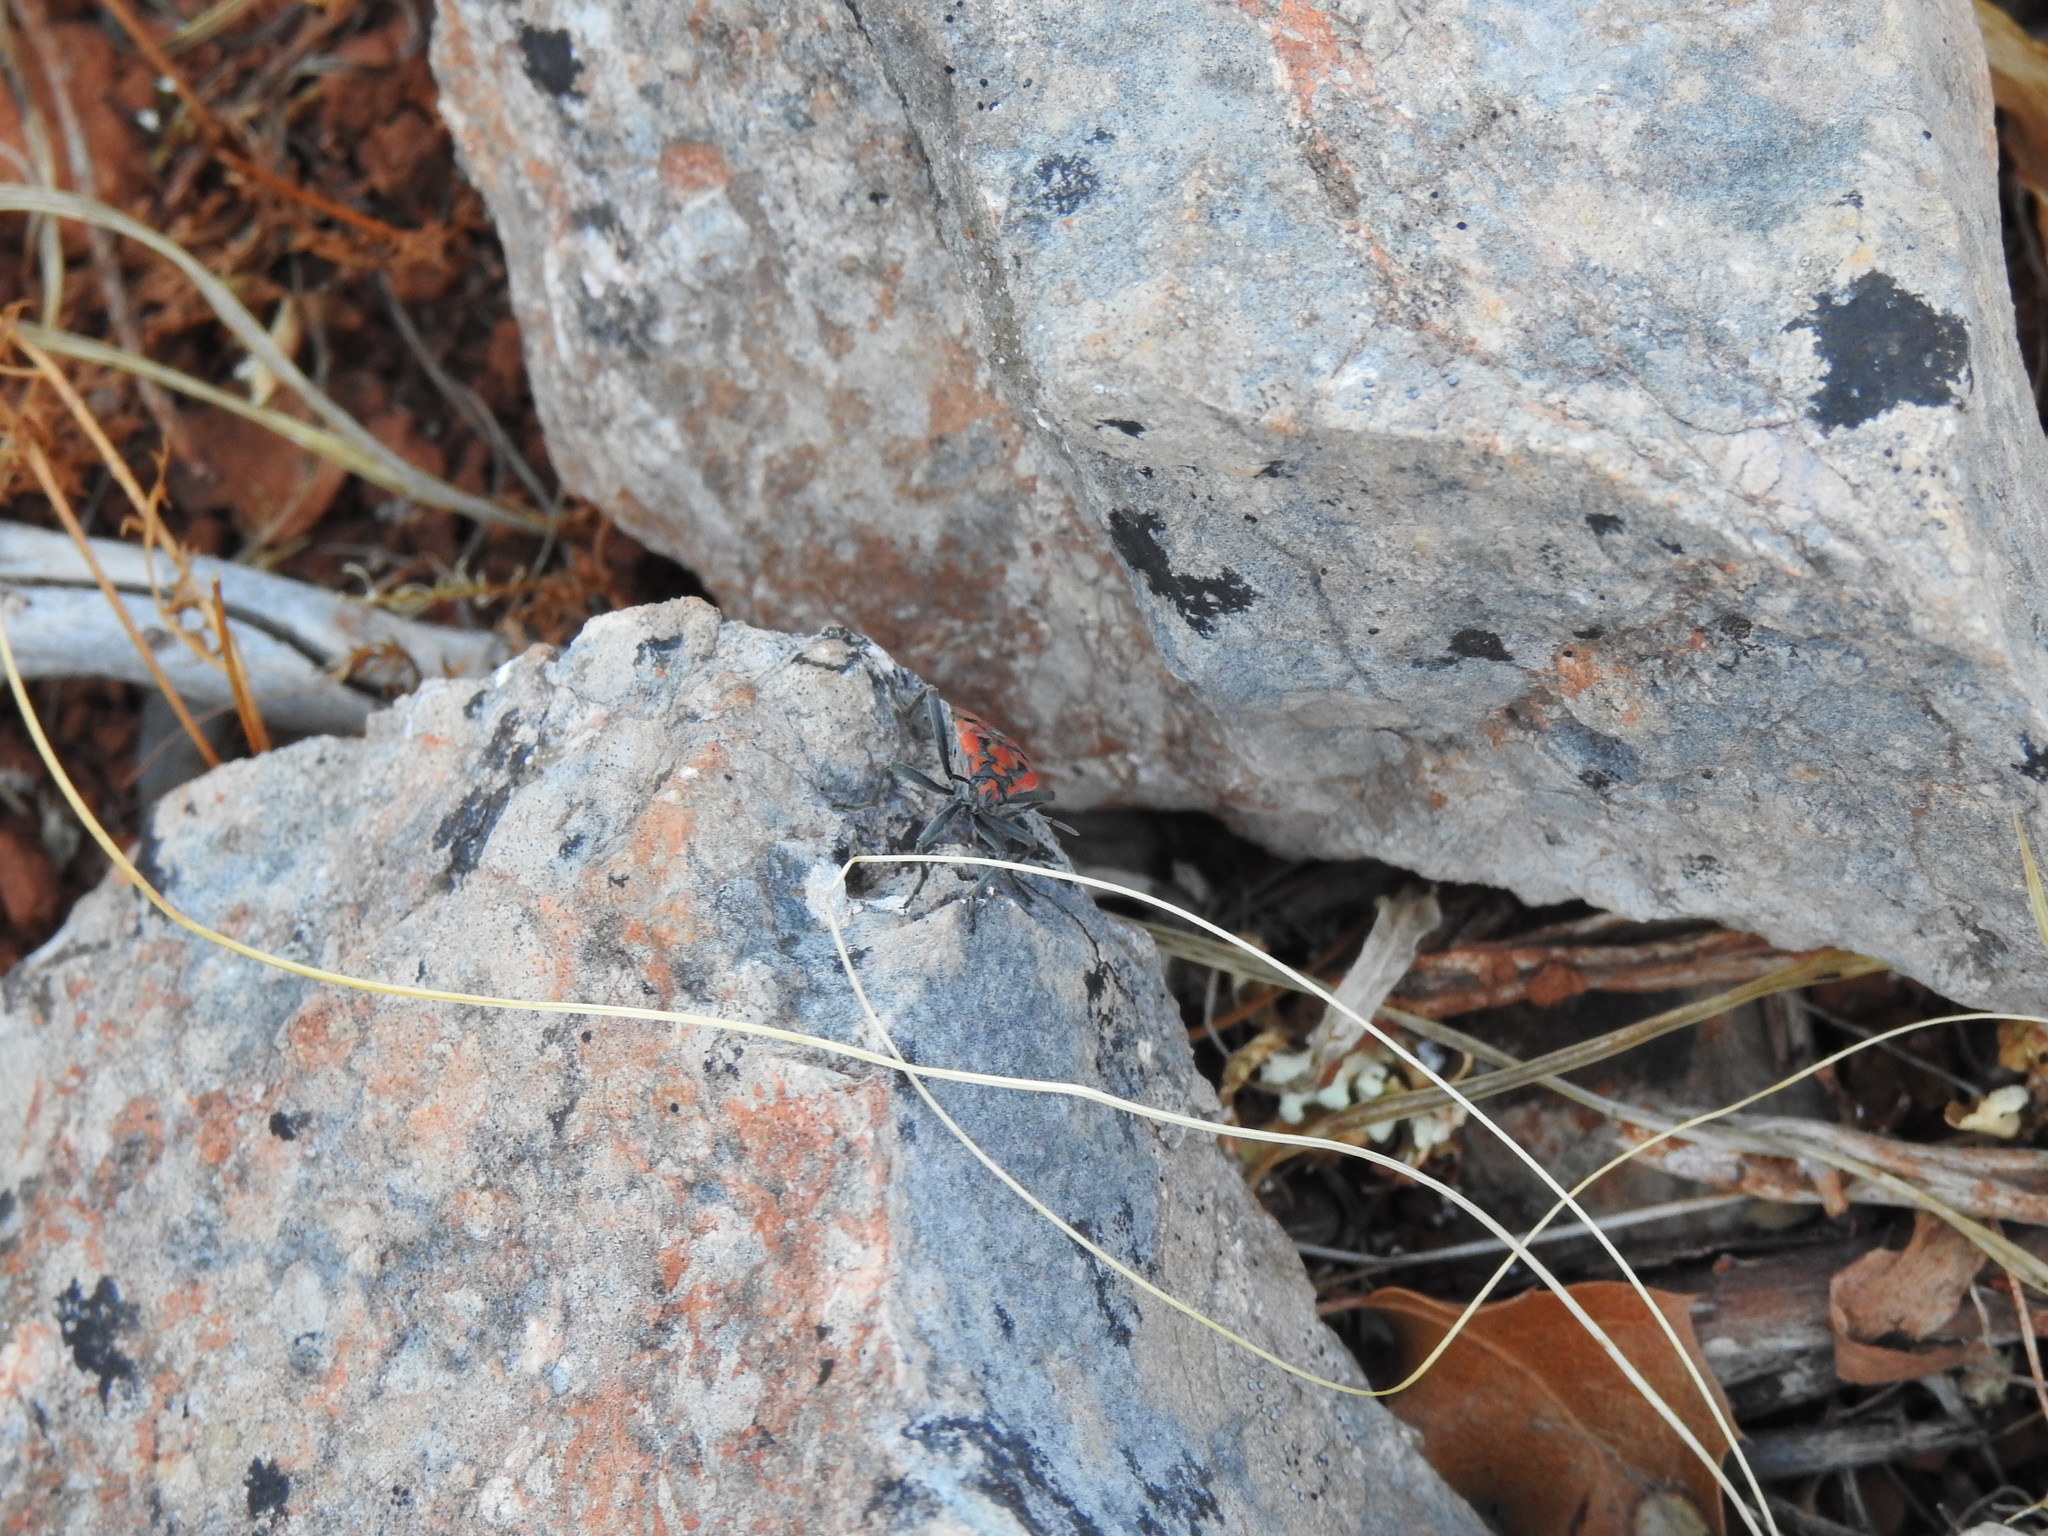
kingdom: Animalia
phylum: Arthropoda
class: Insecta
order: Hemiptera
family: Lygaeidae
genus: Spilostethus
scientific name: Spilostethus pandurus
